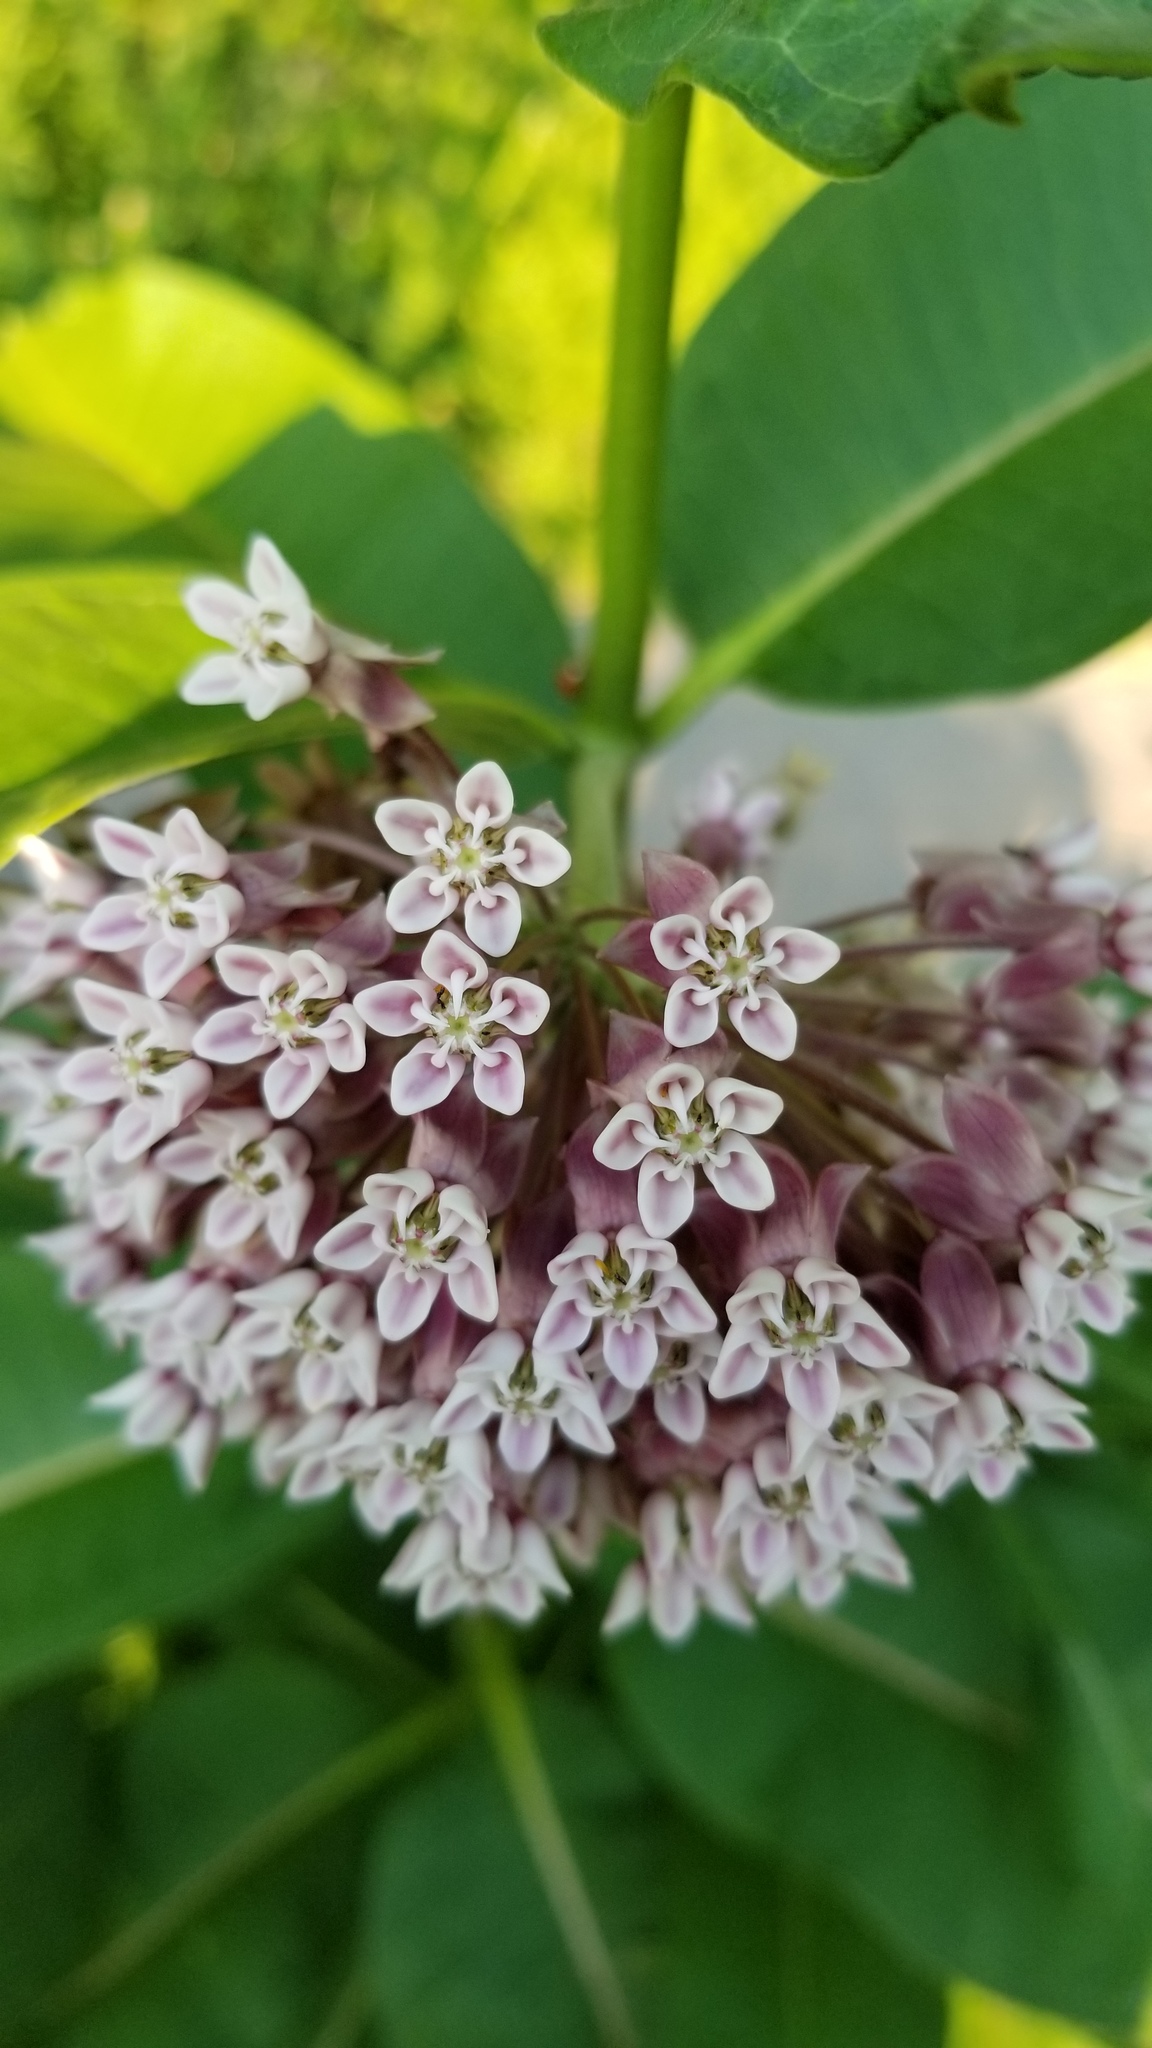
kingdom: Plantae
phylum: Tracheophyta
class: Magnoliopsida
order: Gentianales
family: Apocynaceae
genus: Asclepias
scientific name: Asclepias syriaca
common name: Common milkweed
